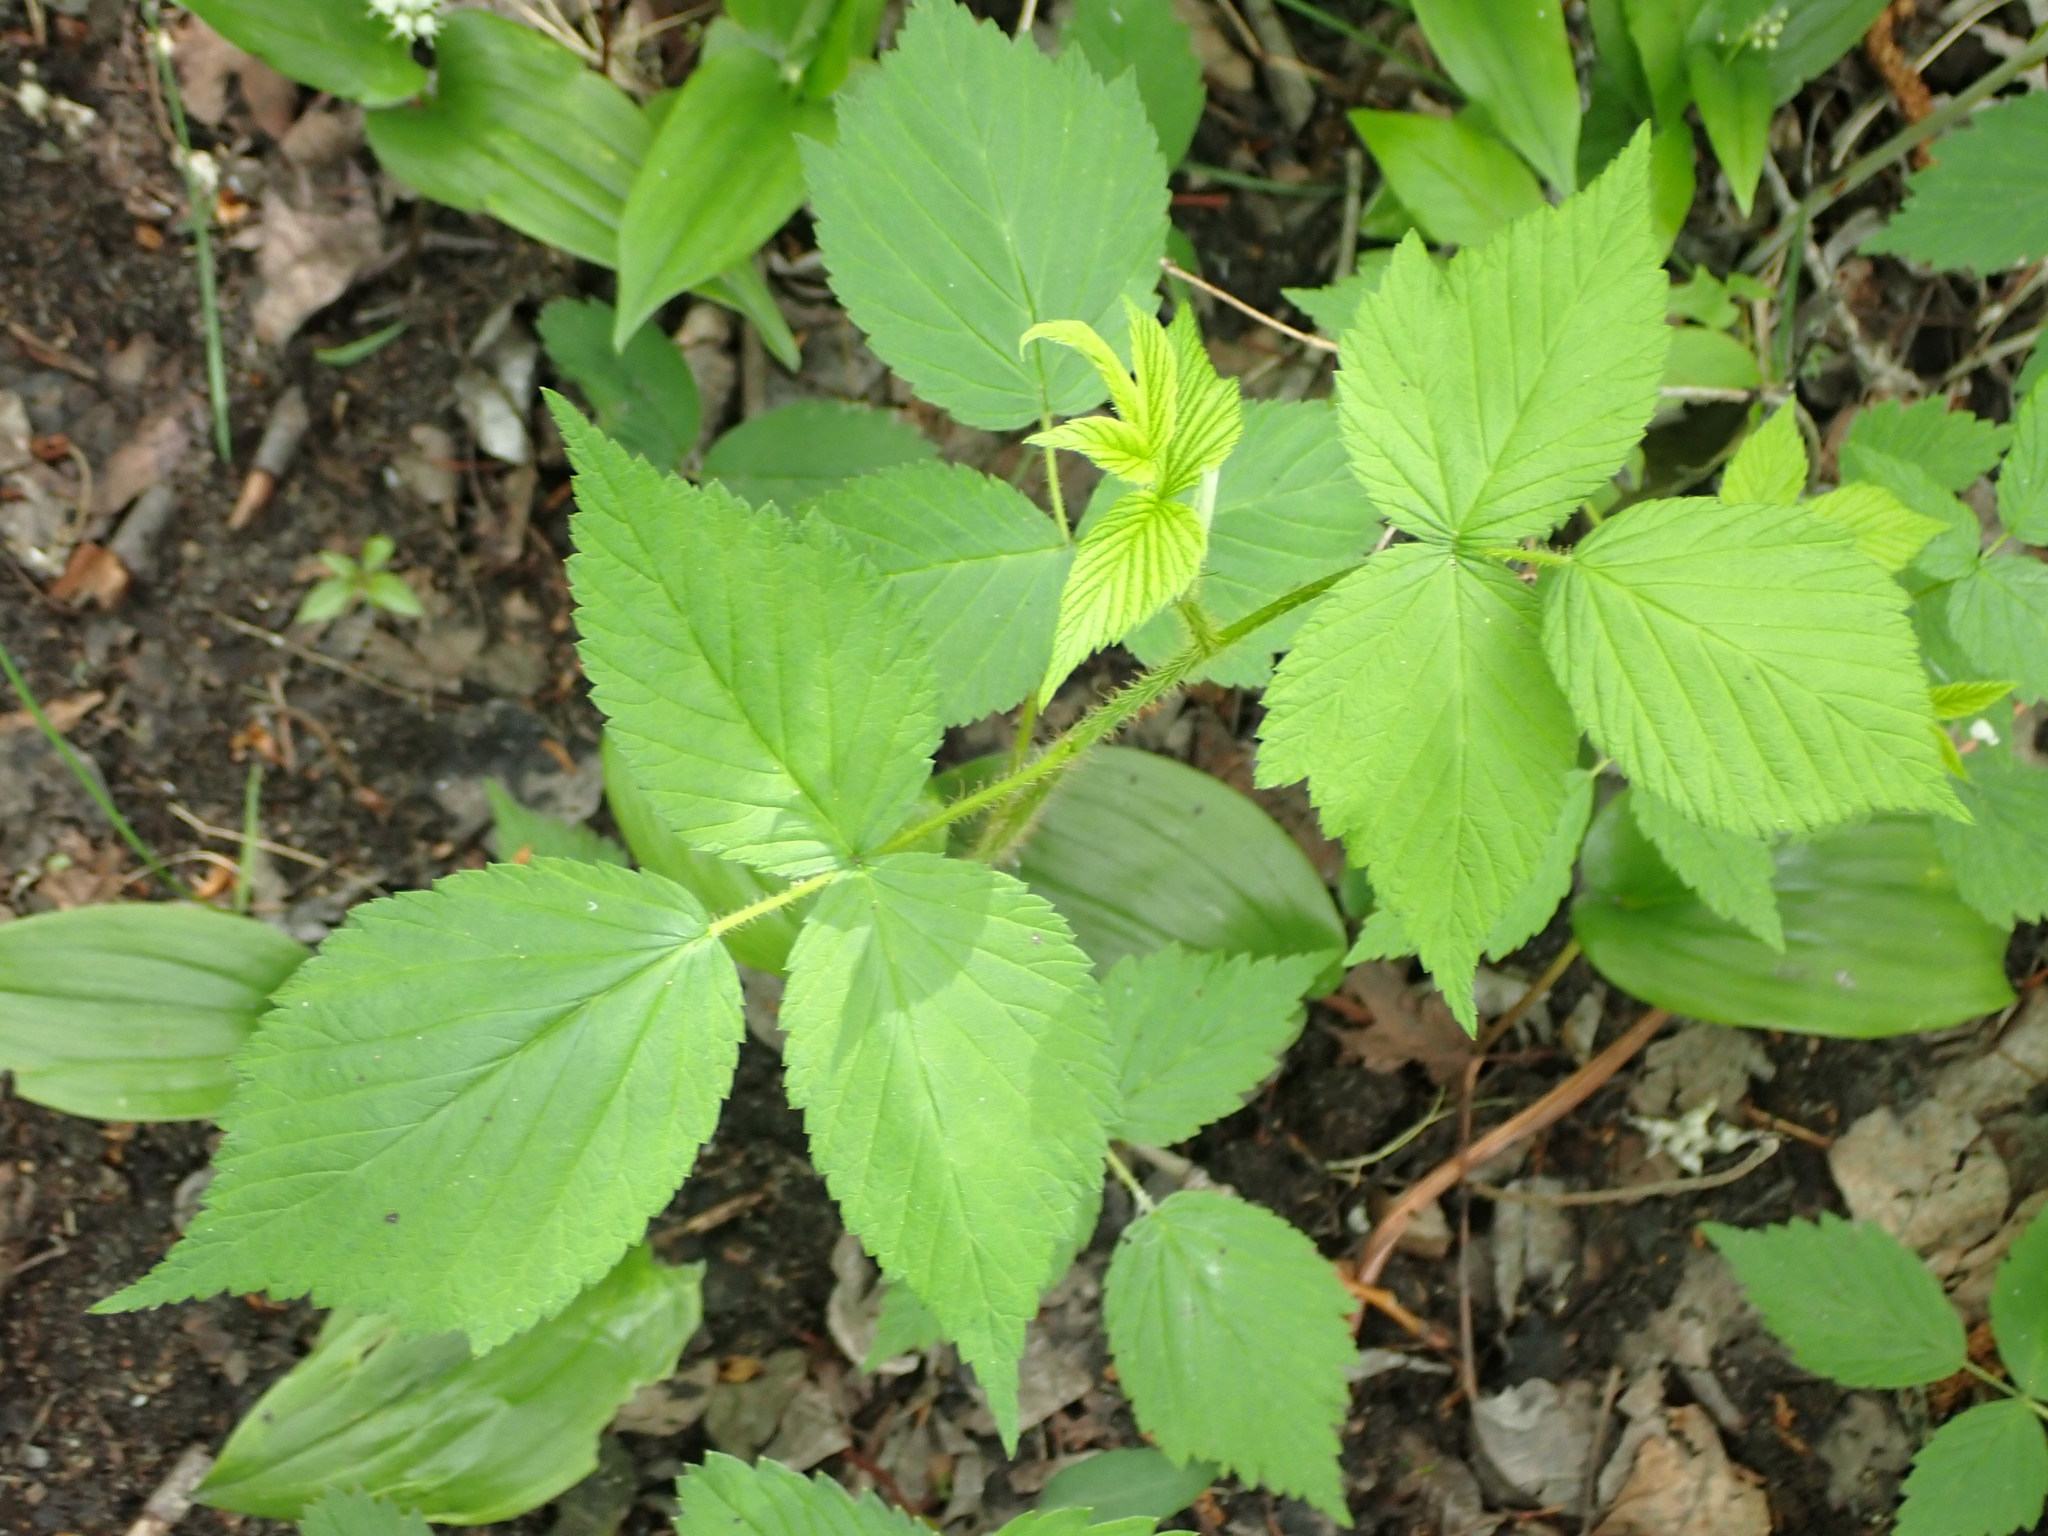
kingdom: Plantae
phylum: Tracheophyta
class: Magnoliopsida
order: Rosales
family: Rosaceae
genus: Rubus
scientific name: Rubus idaeus
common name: Raspberry
